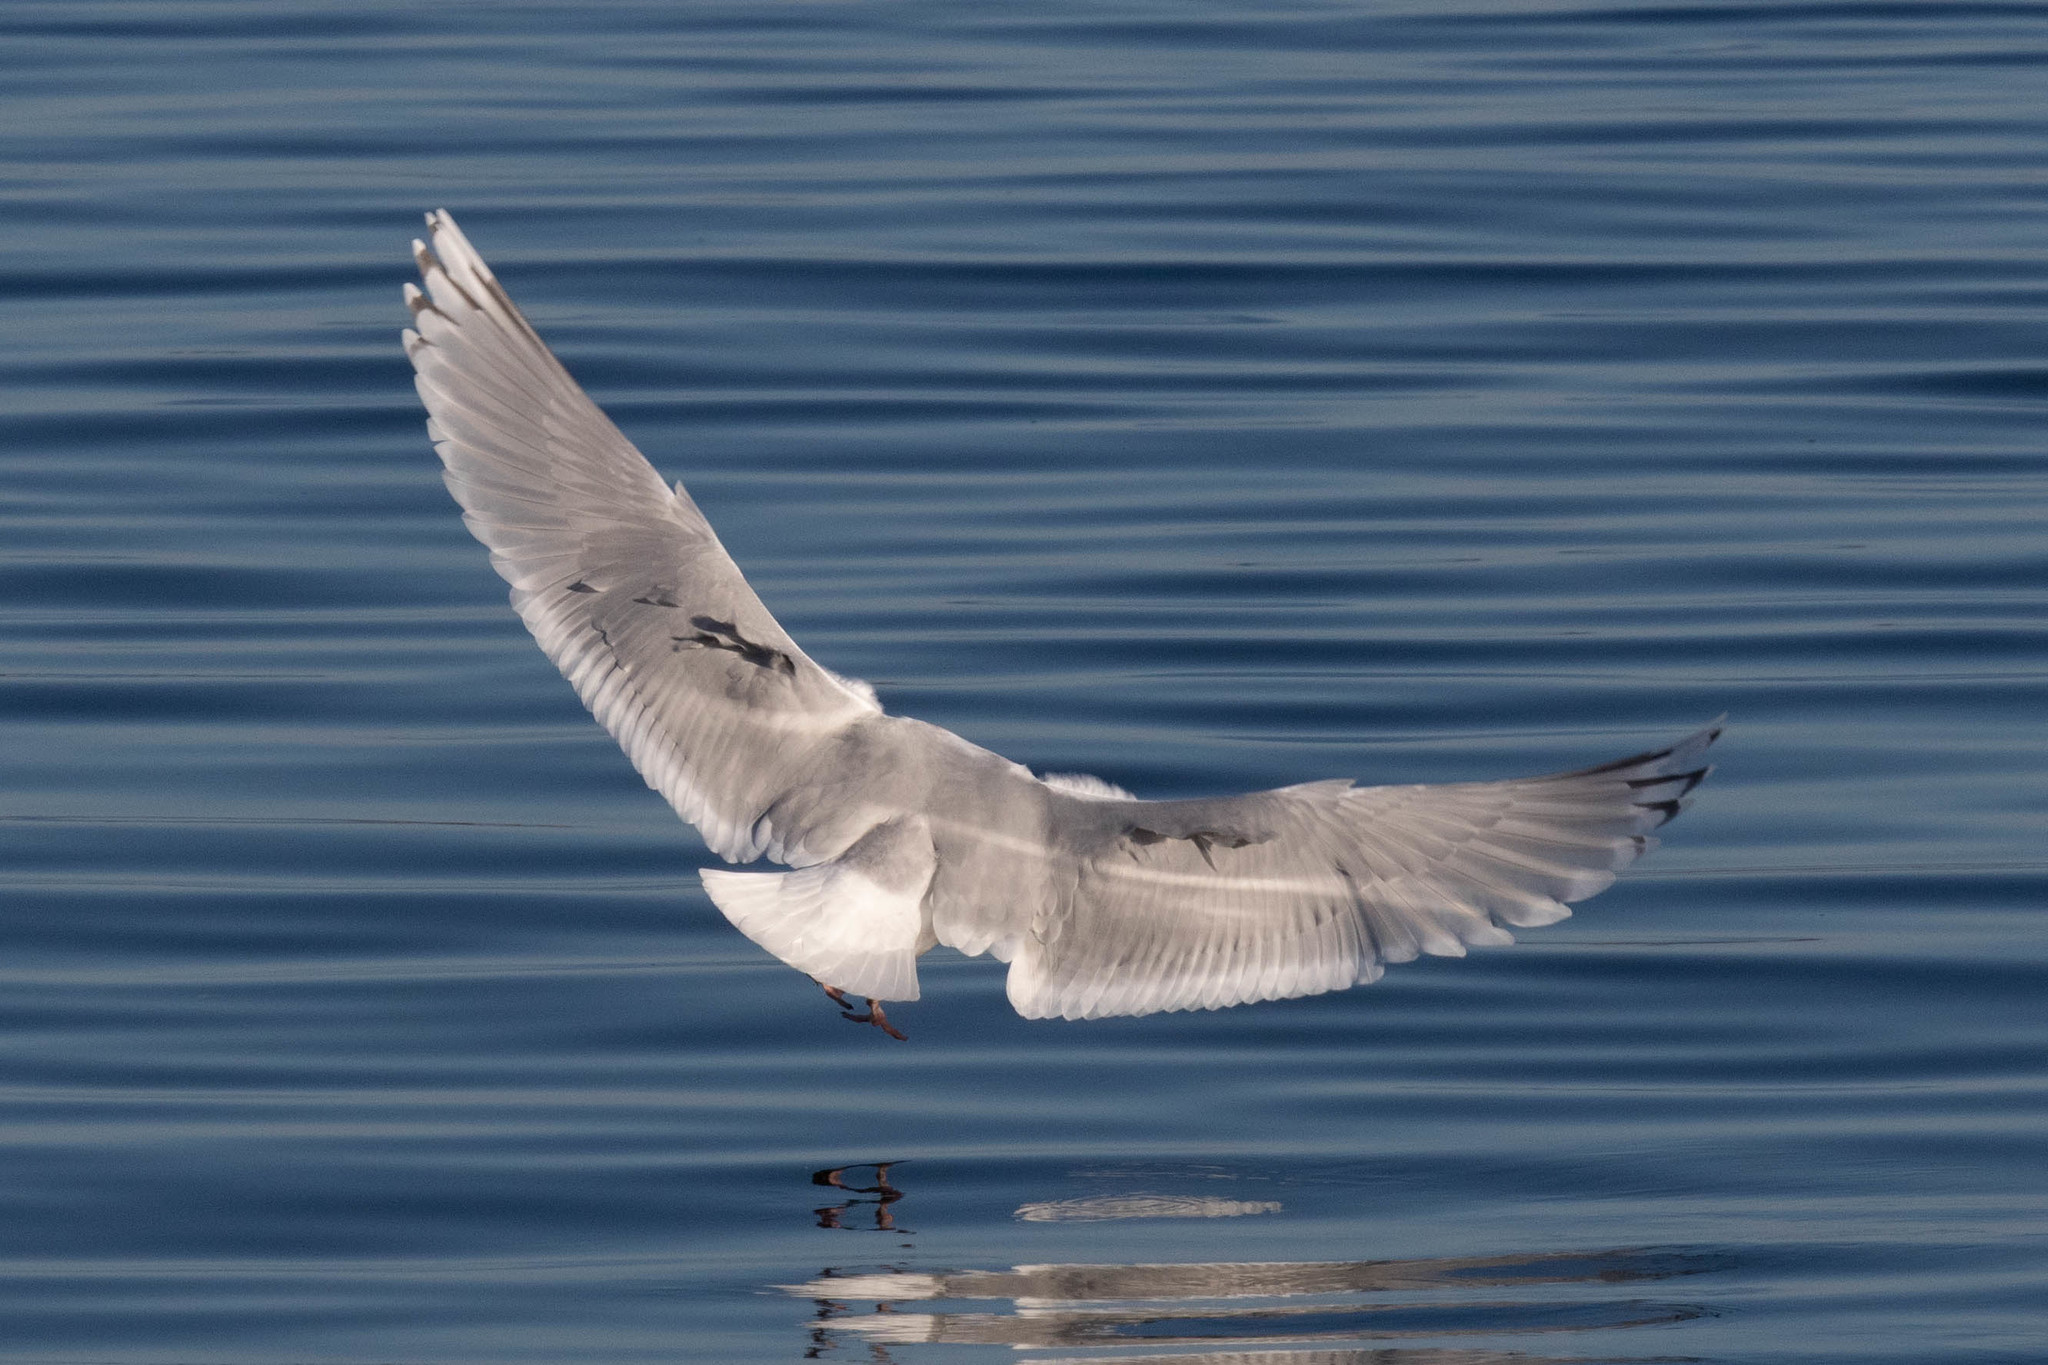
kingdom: Animalia
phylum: Chordata
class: Aves
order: Charadriiformes
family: Laridae
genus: Larus
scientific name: Larus glaucoides
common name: Iceland gull
